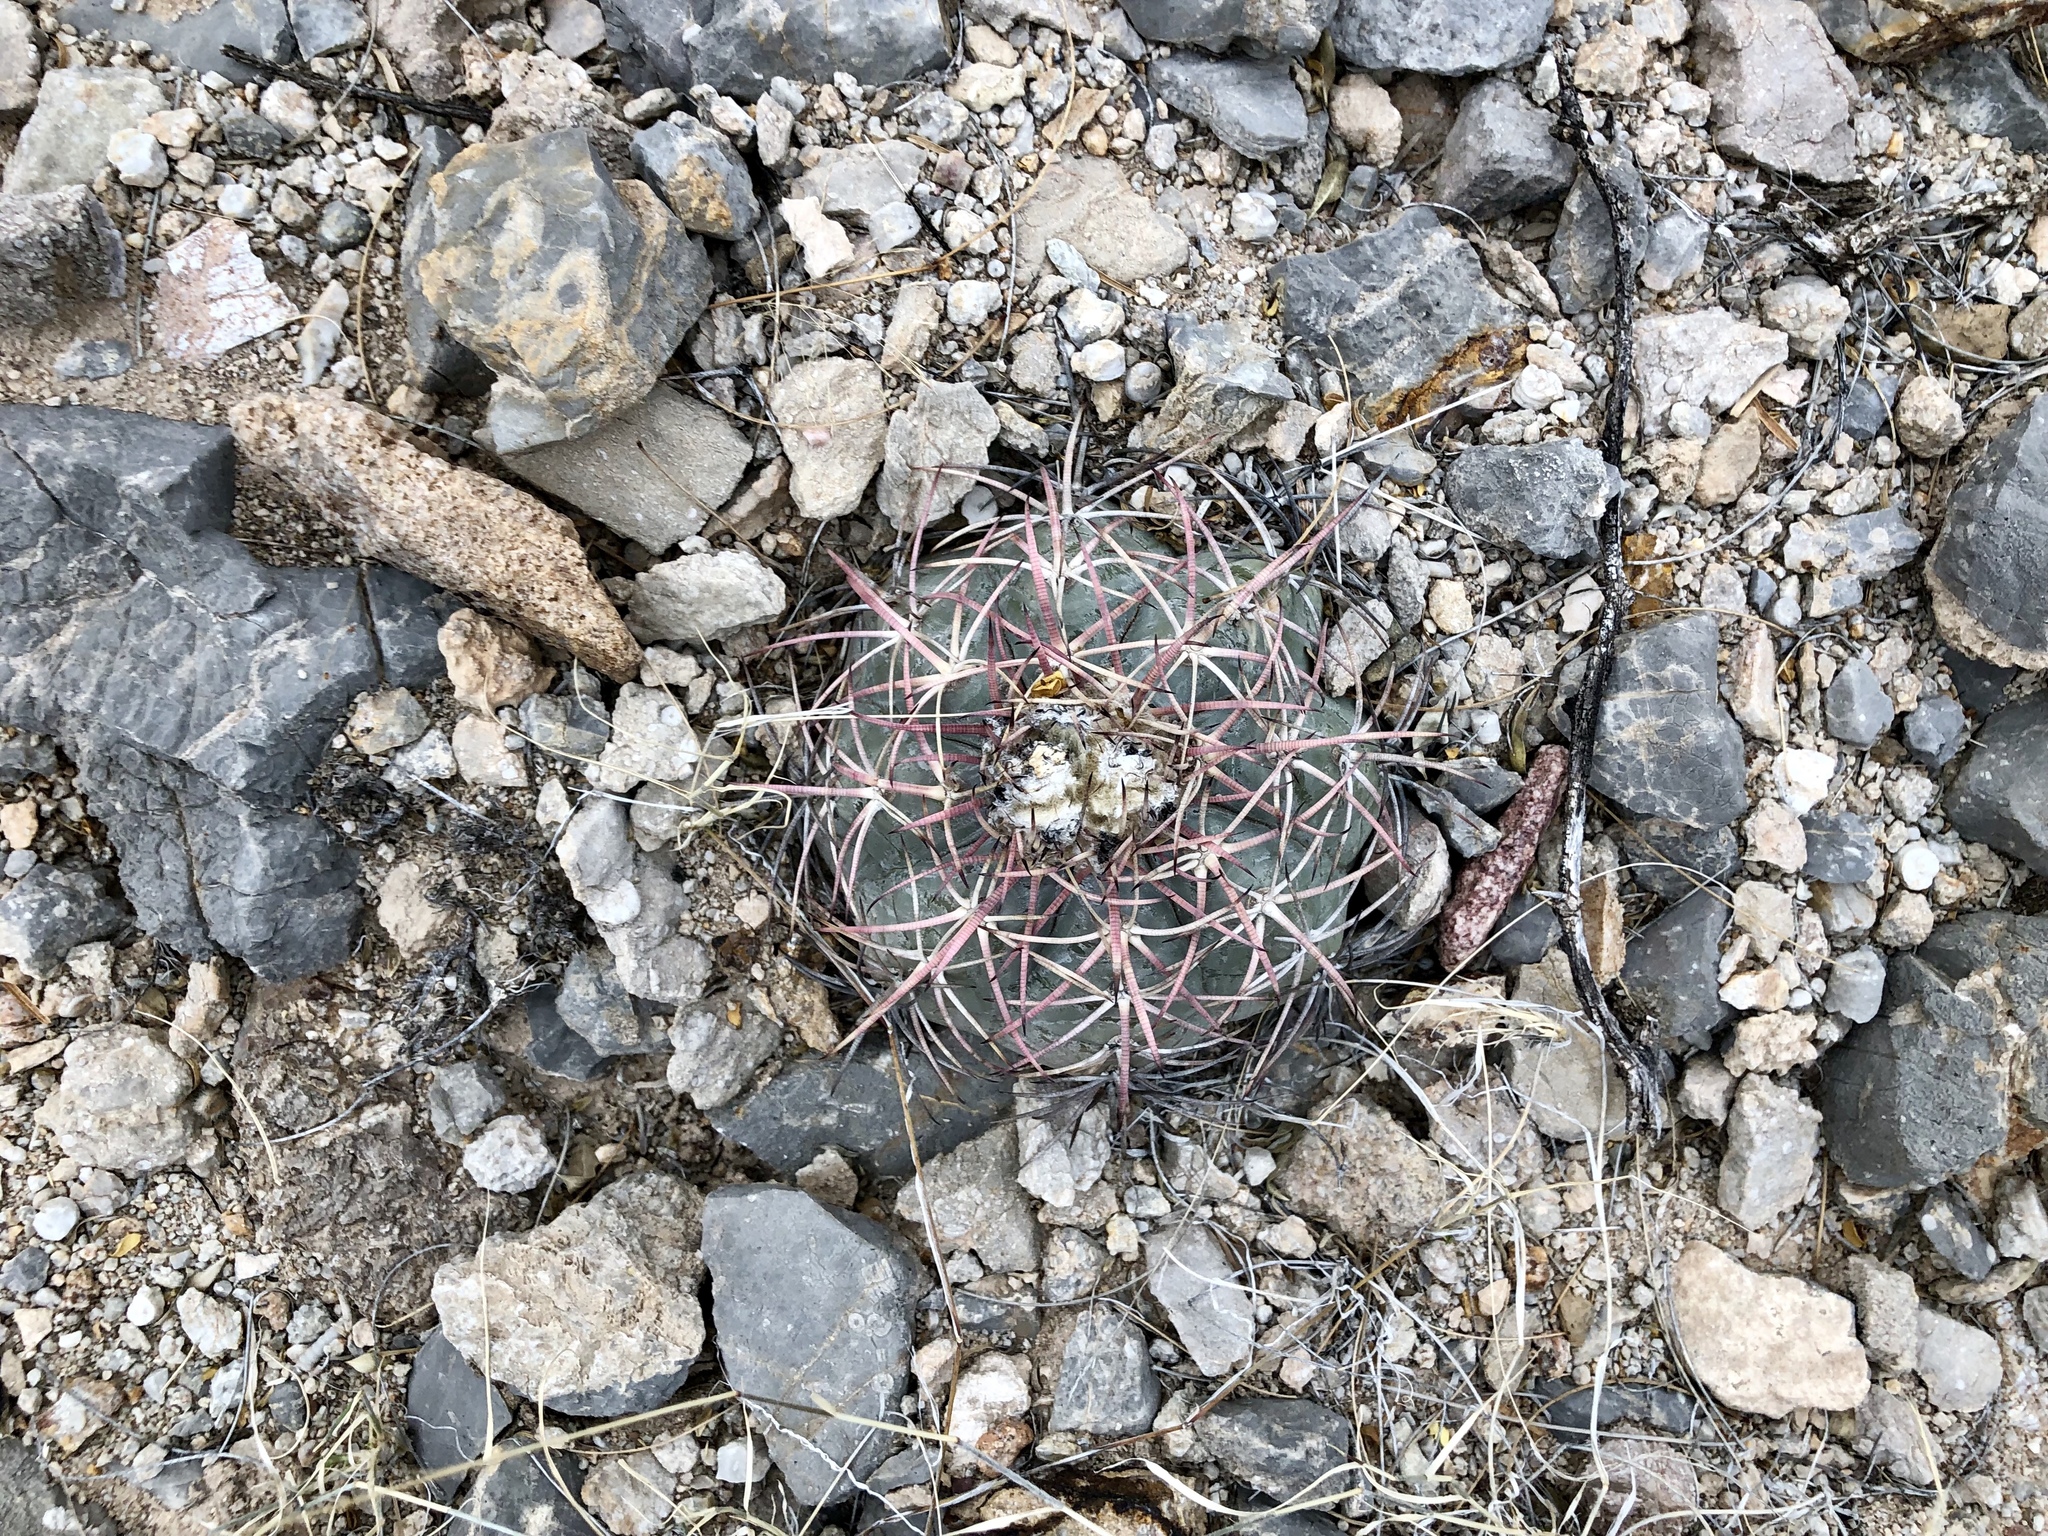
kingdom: Plantae
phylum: Tracheophyta
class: Magnoliopsida
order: Caryophyllales
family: Cactaceae
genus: Echinocactus
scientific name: Echinocactus horizonthalonius
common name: Devilshead
